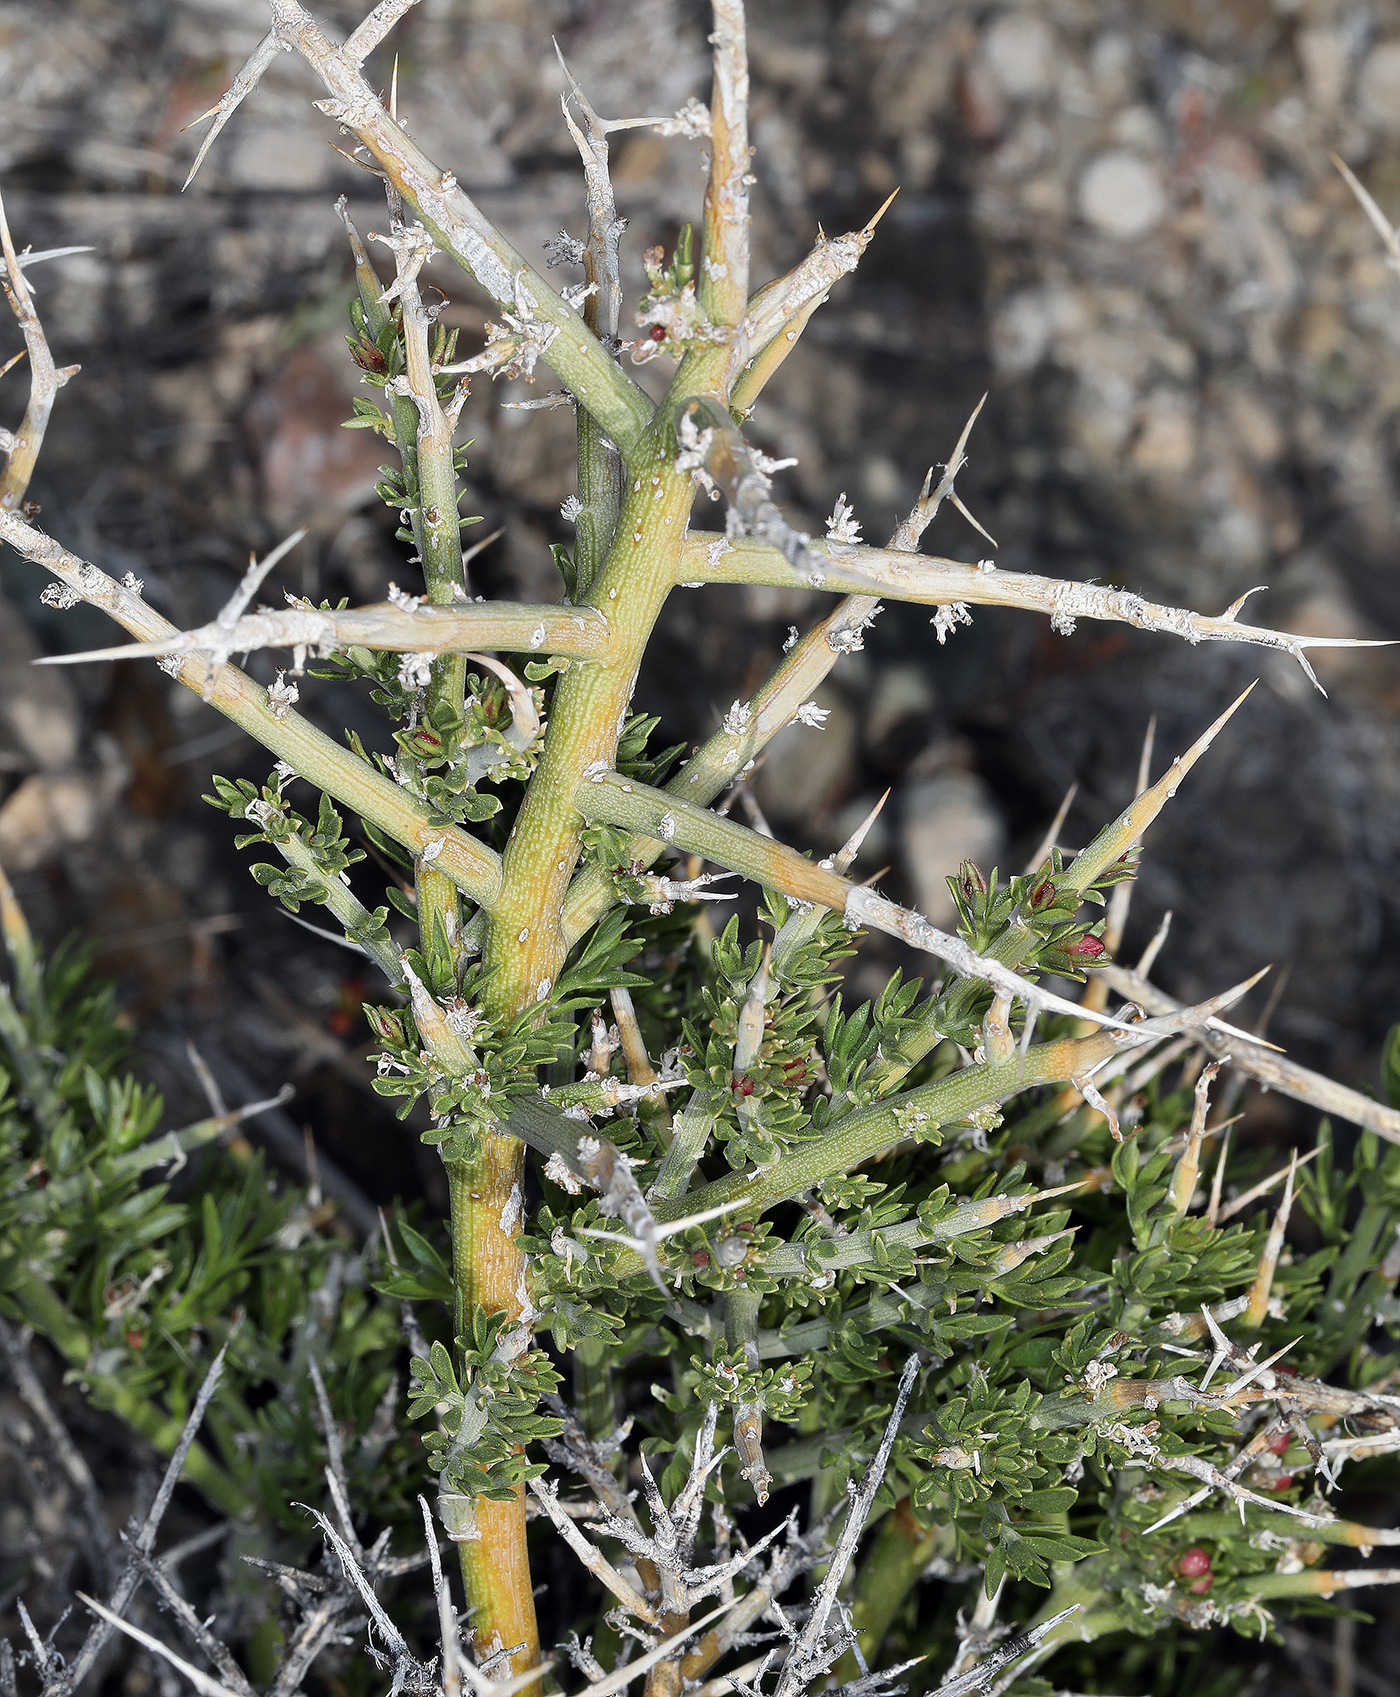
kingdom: Plantae
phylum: Tracheophyta
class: Magnoliopsida
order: Lamiales
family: Oleaceae
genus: Menodora
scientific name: Menodora spinescens
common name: Spiny menodora
